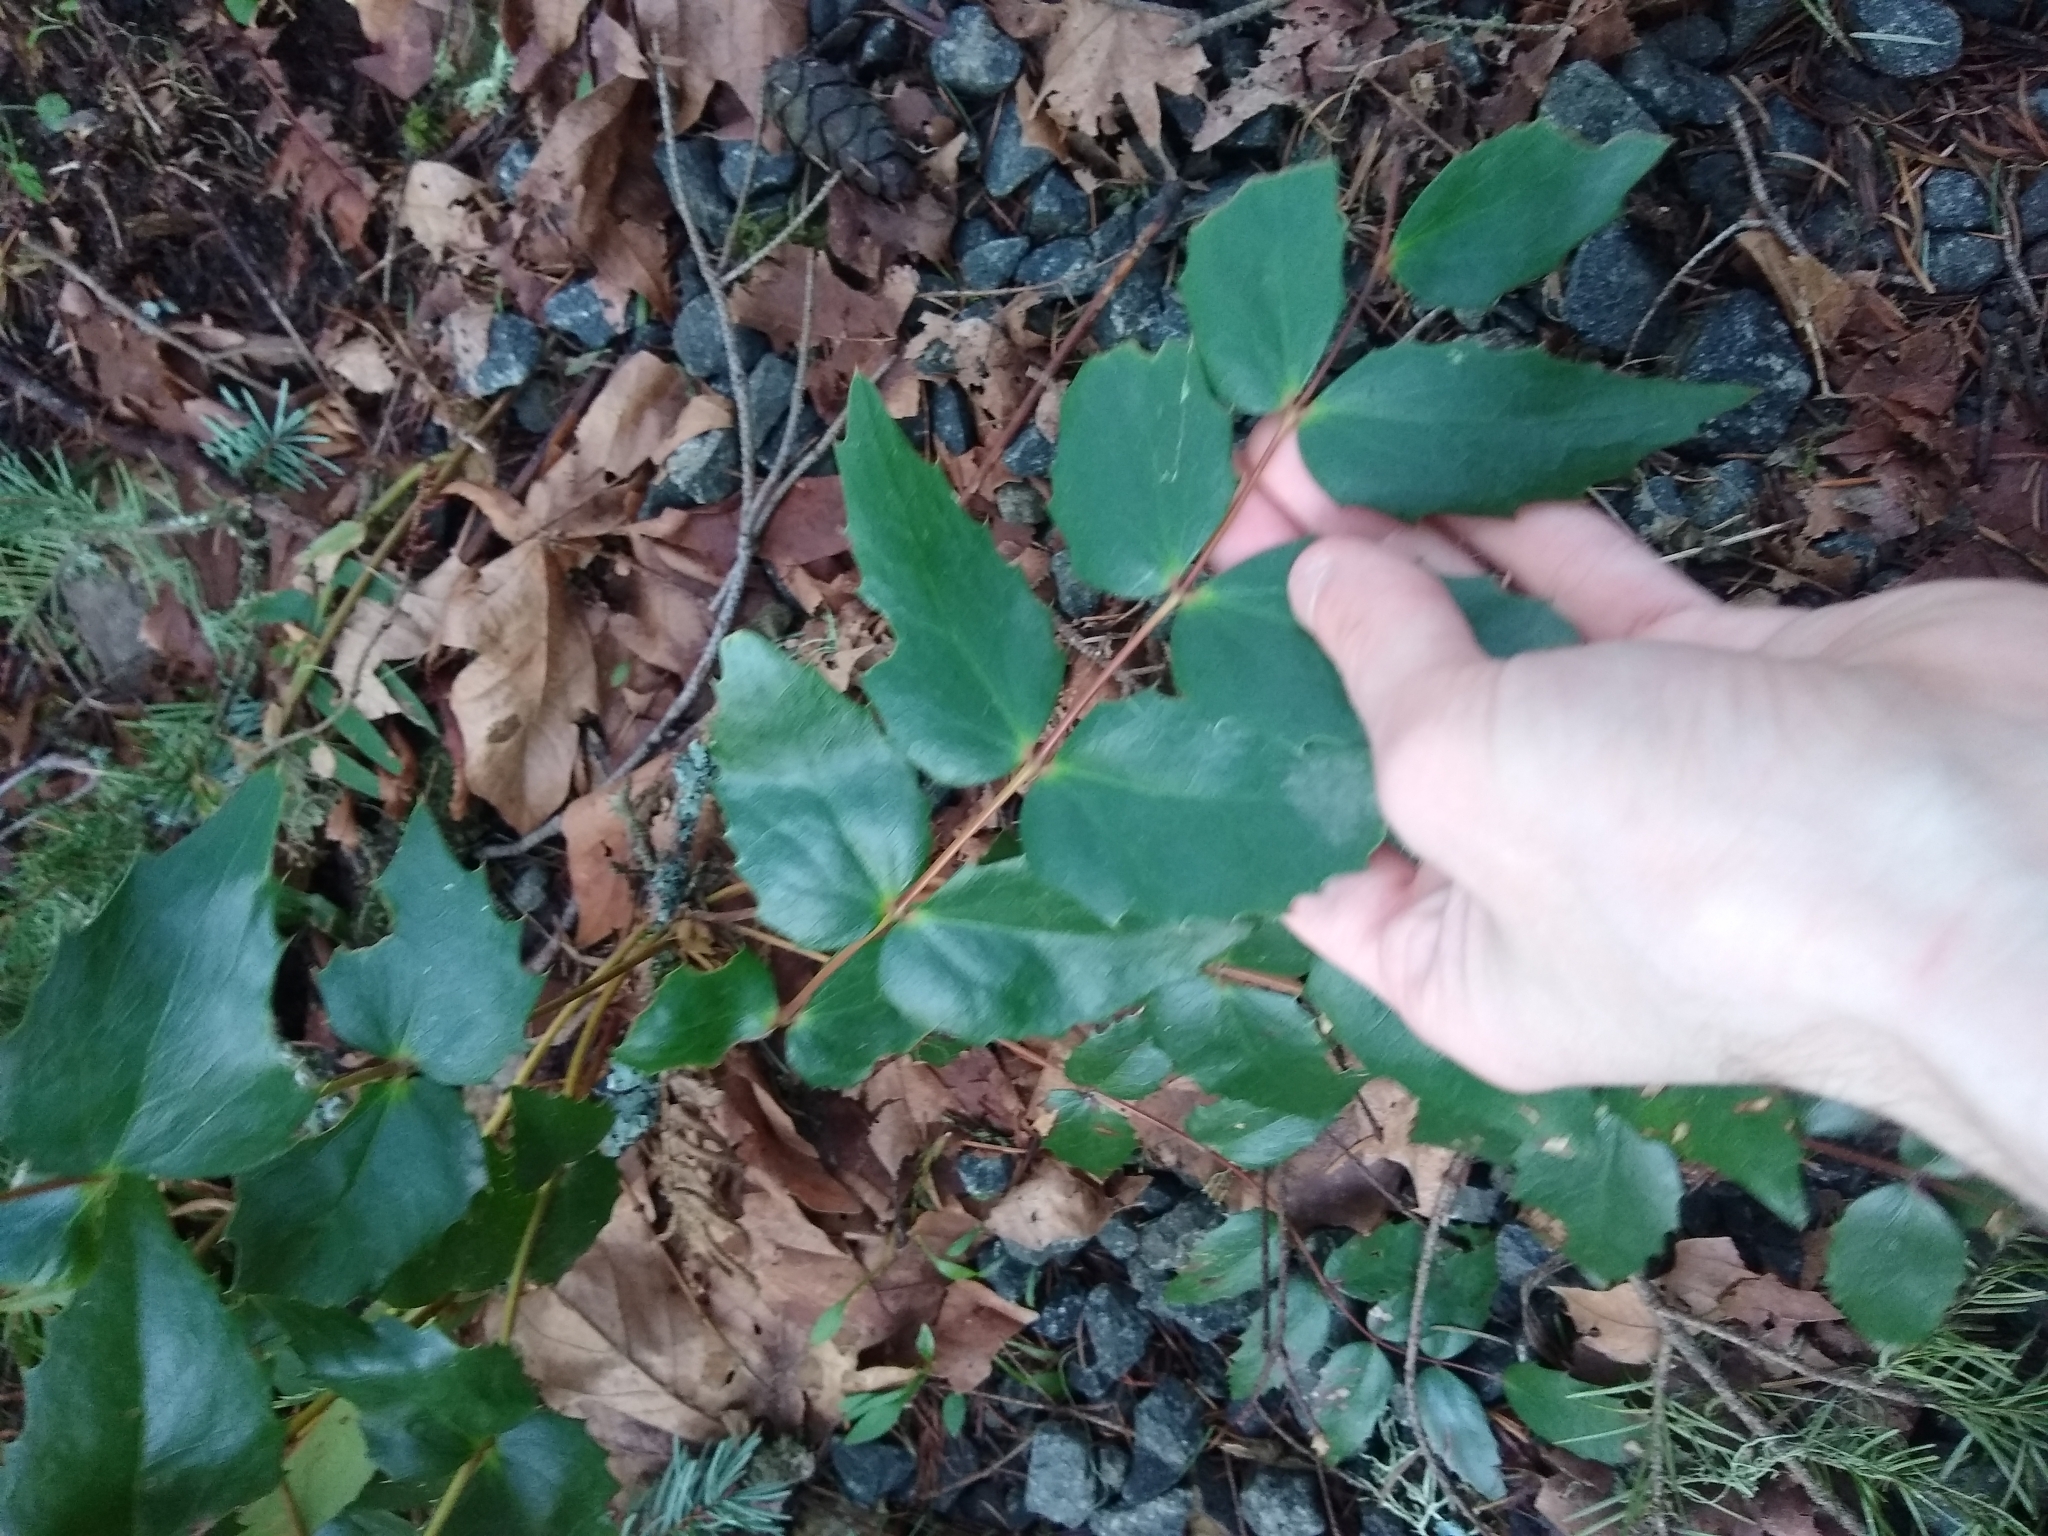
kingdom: Plantae
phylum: Tracheophyta
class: Magnoliopsida
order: Ranunculales
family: Berberidaceae
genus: Mahonia
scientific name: Mahonia nervosa
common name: Cascade oregon-grape
